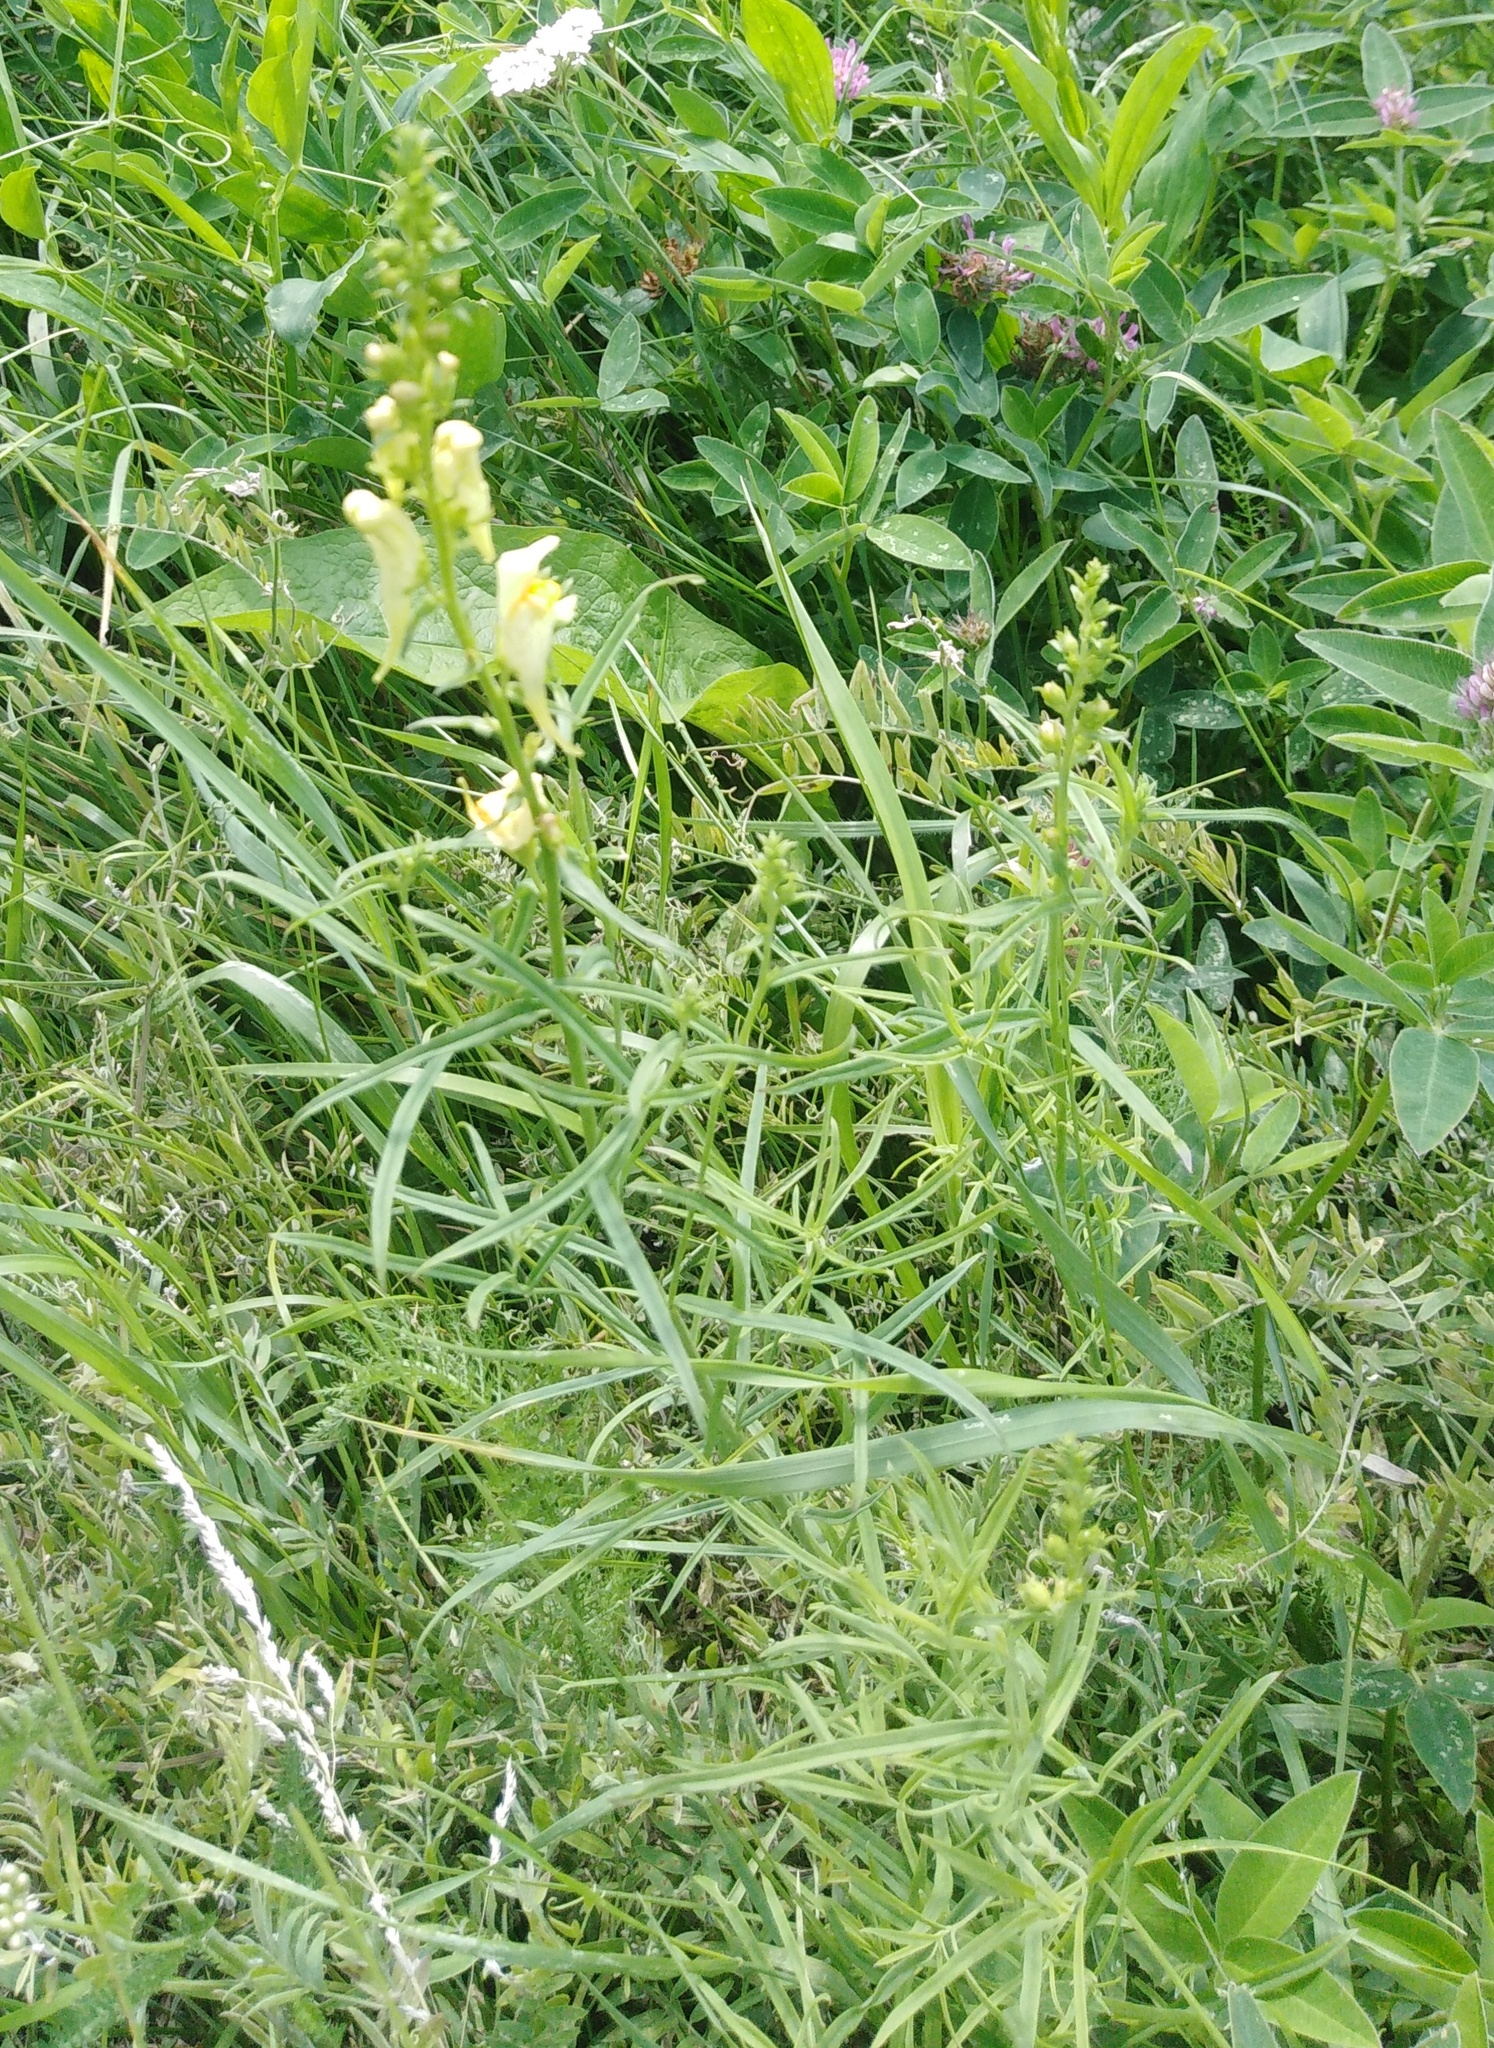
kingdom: Plantae
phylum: Tracheophyta
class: Magnoliopsida
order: Lamiales
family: Plantaginaceae
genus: Linaria
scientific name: Linaria vulgaris
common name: Butter and eggs
